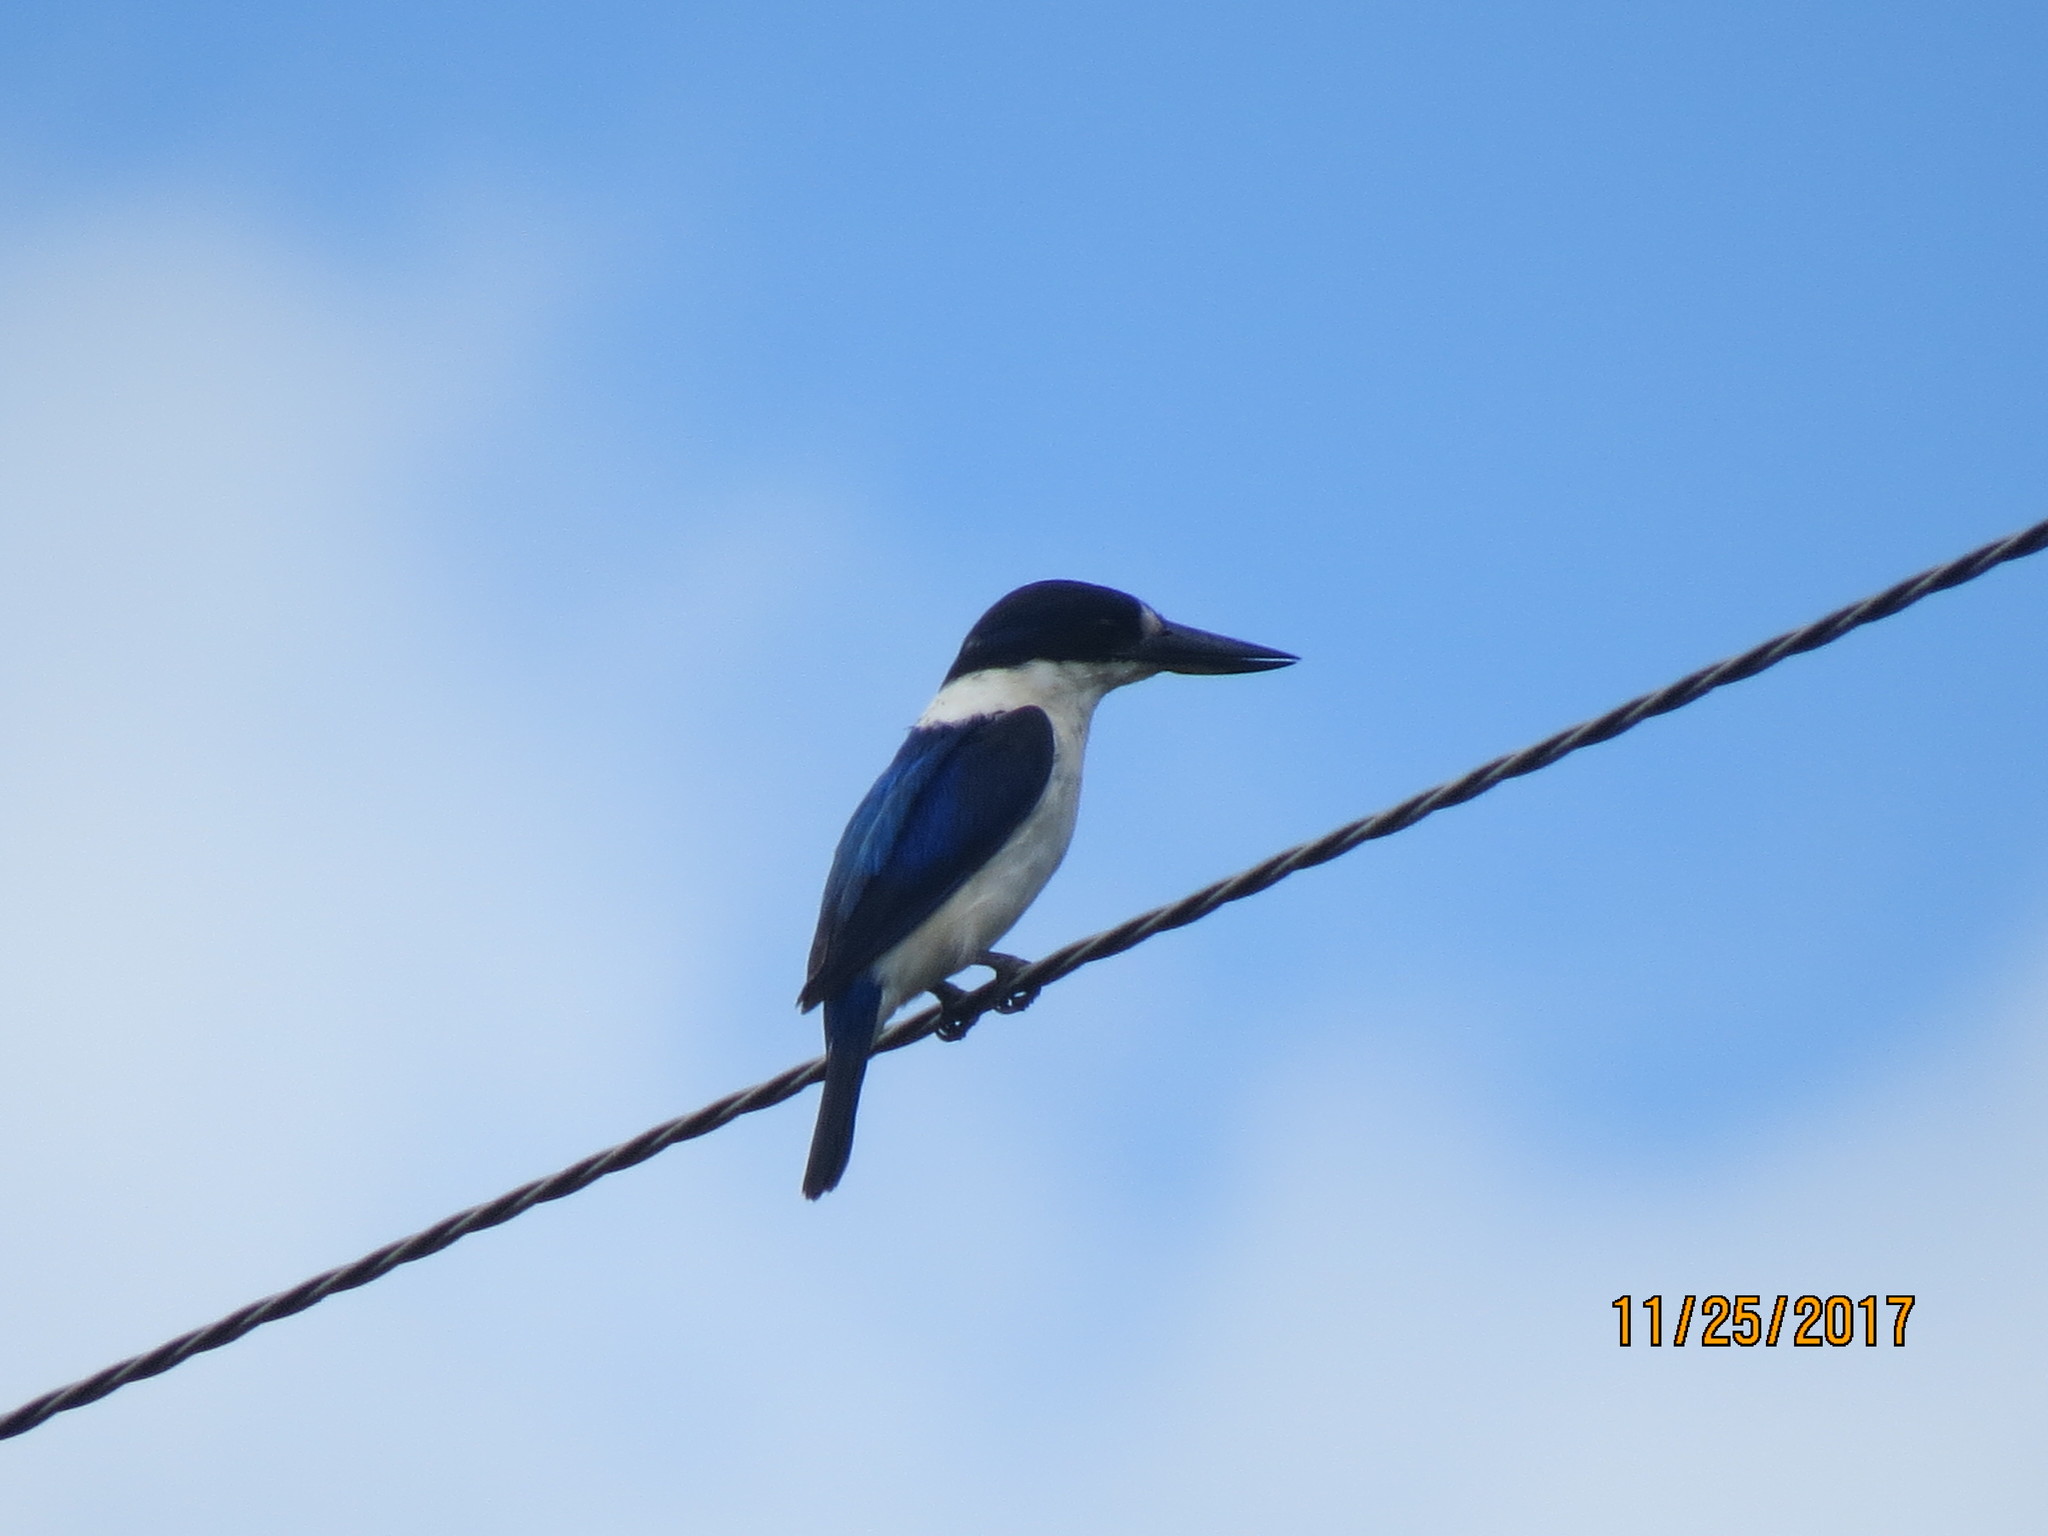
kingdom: Animalia
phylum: Chordata
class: Aves
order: Coraciiformes
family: Alcedinidae
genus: Todiramphus
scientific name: Todiramphus macleayii
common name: Forest kingfisher
